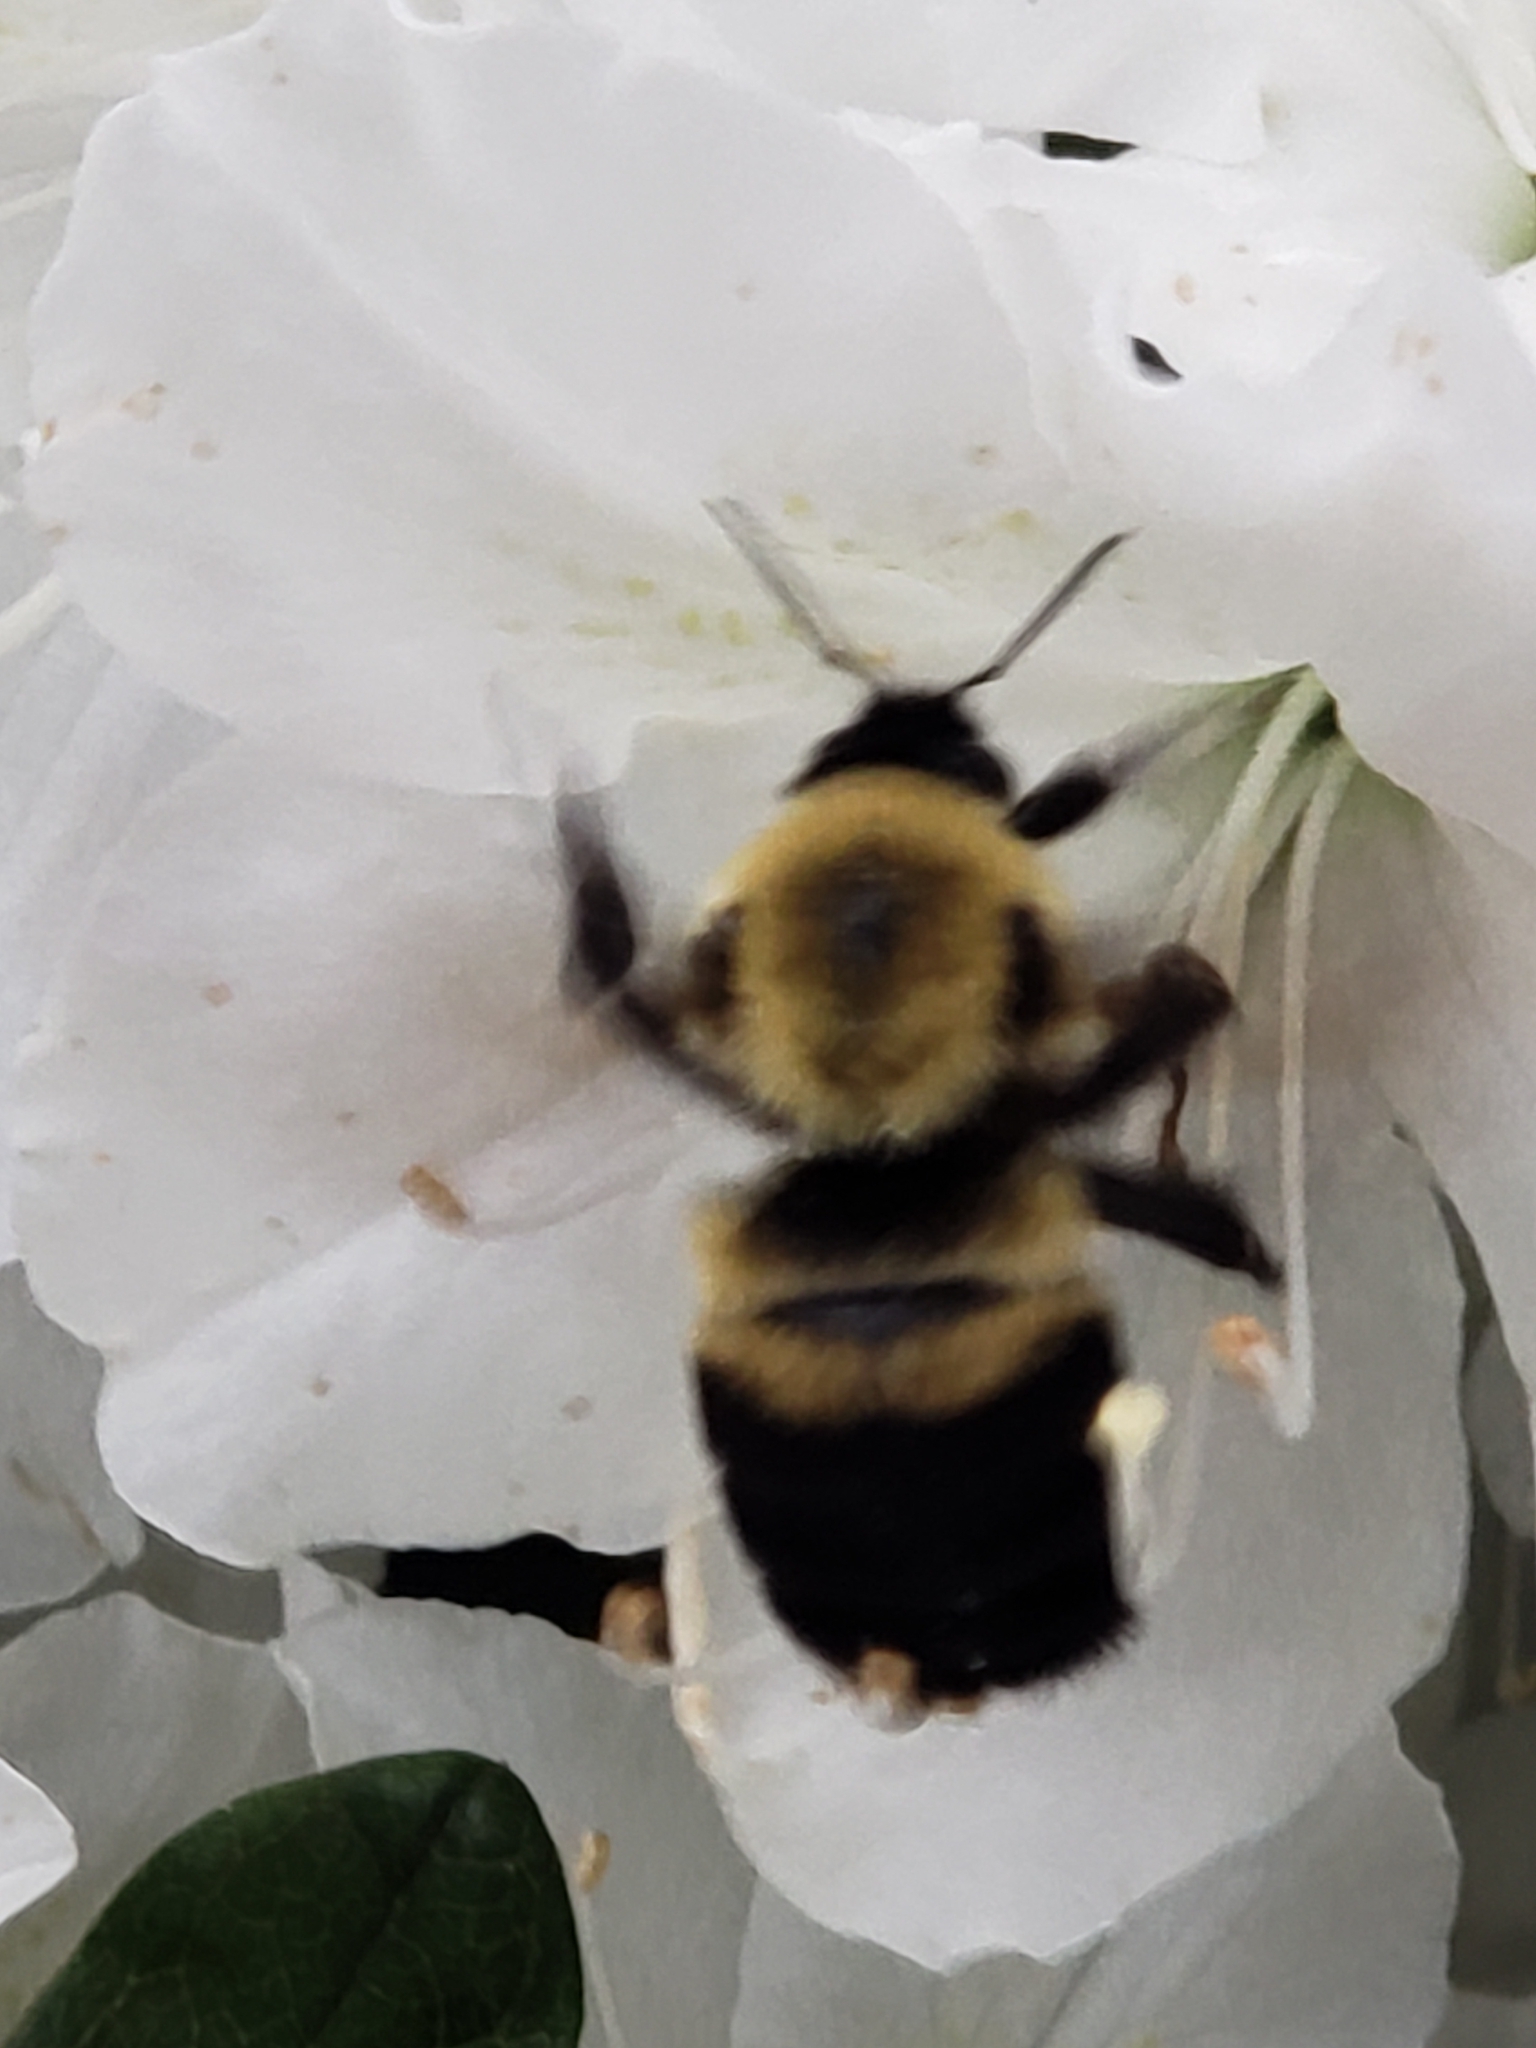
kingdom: Animalia
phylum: Arthropoda
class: Insecta
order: Hymenoptera
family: Apidae
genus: Bombus
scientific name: Bombus griseocollis
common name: Brown-belted bumble bee
